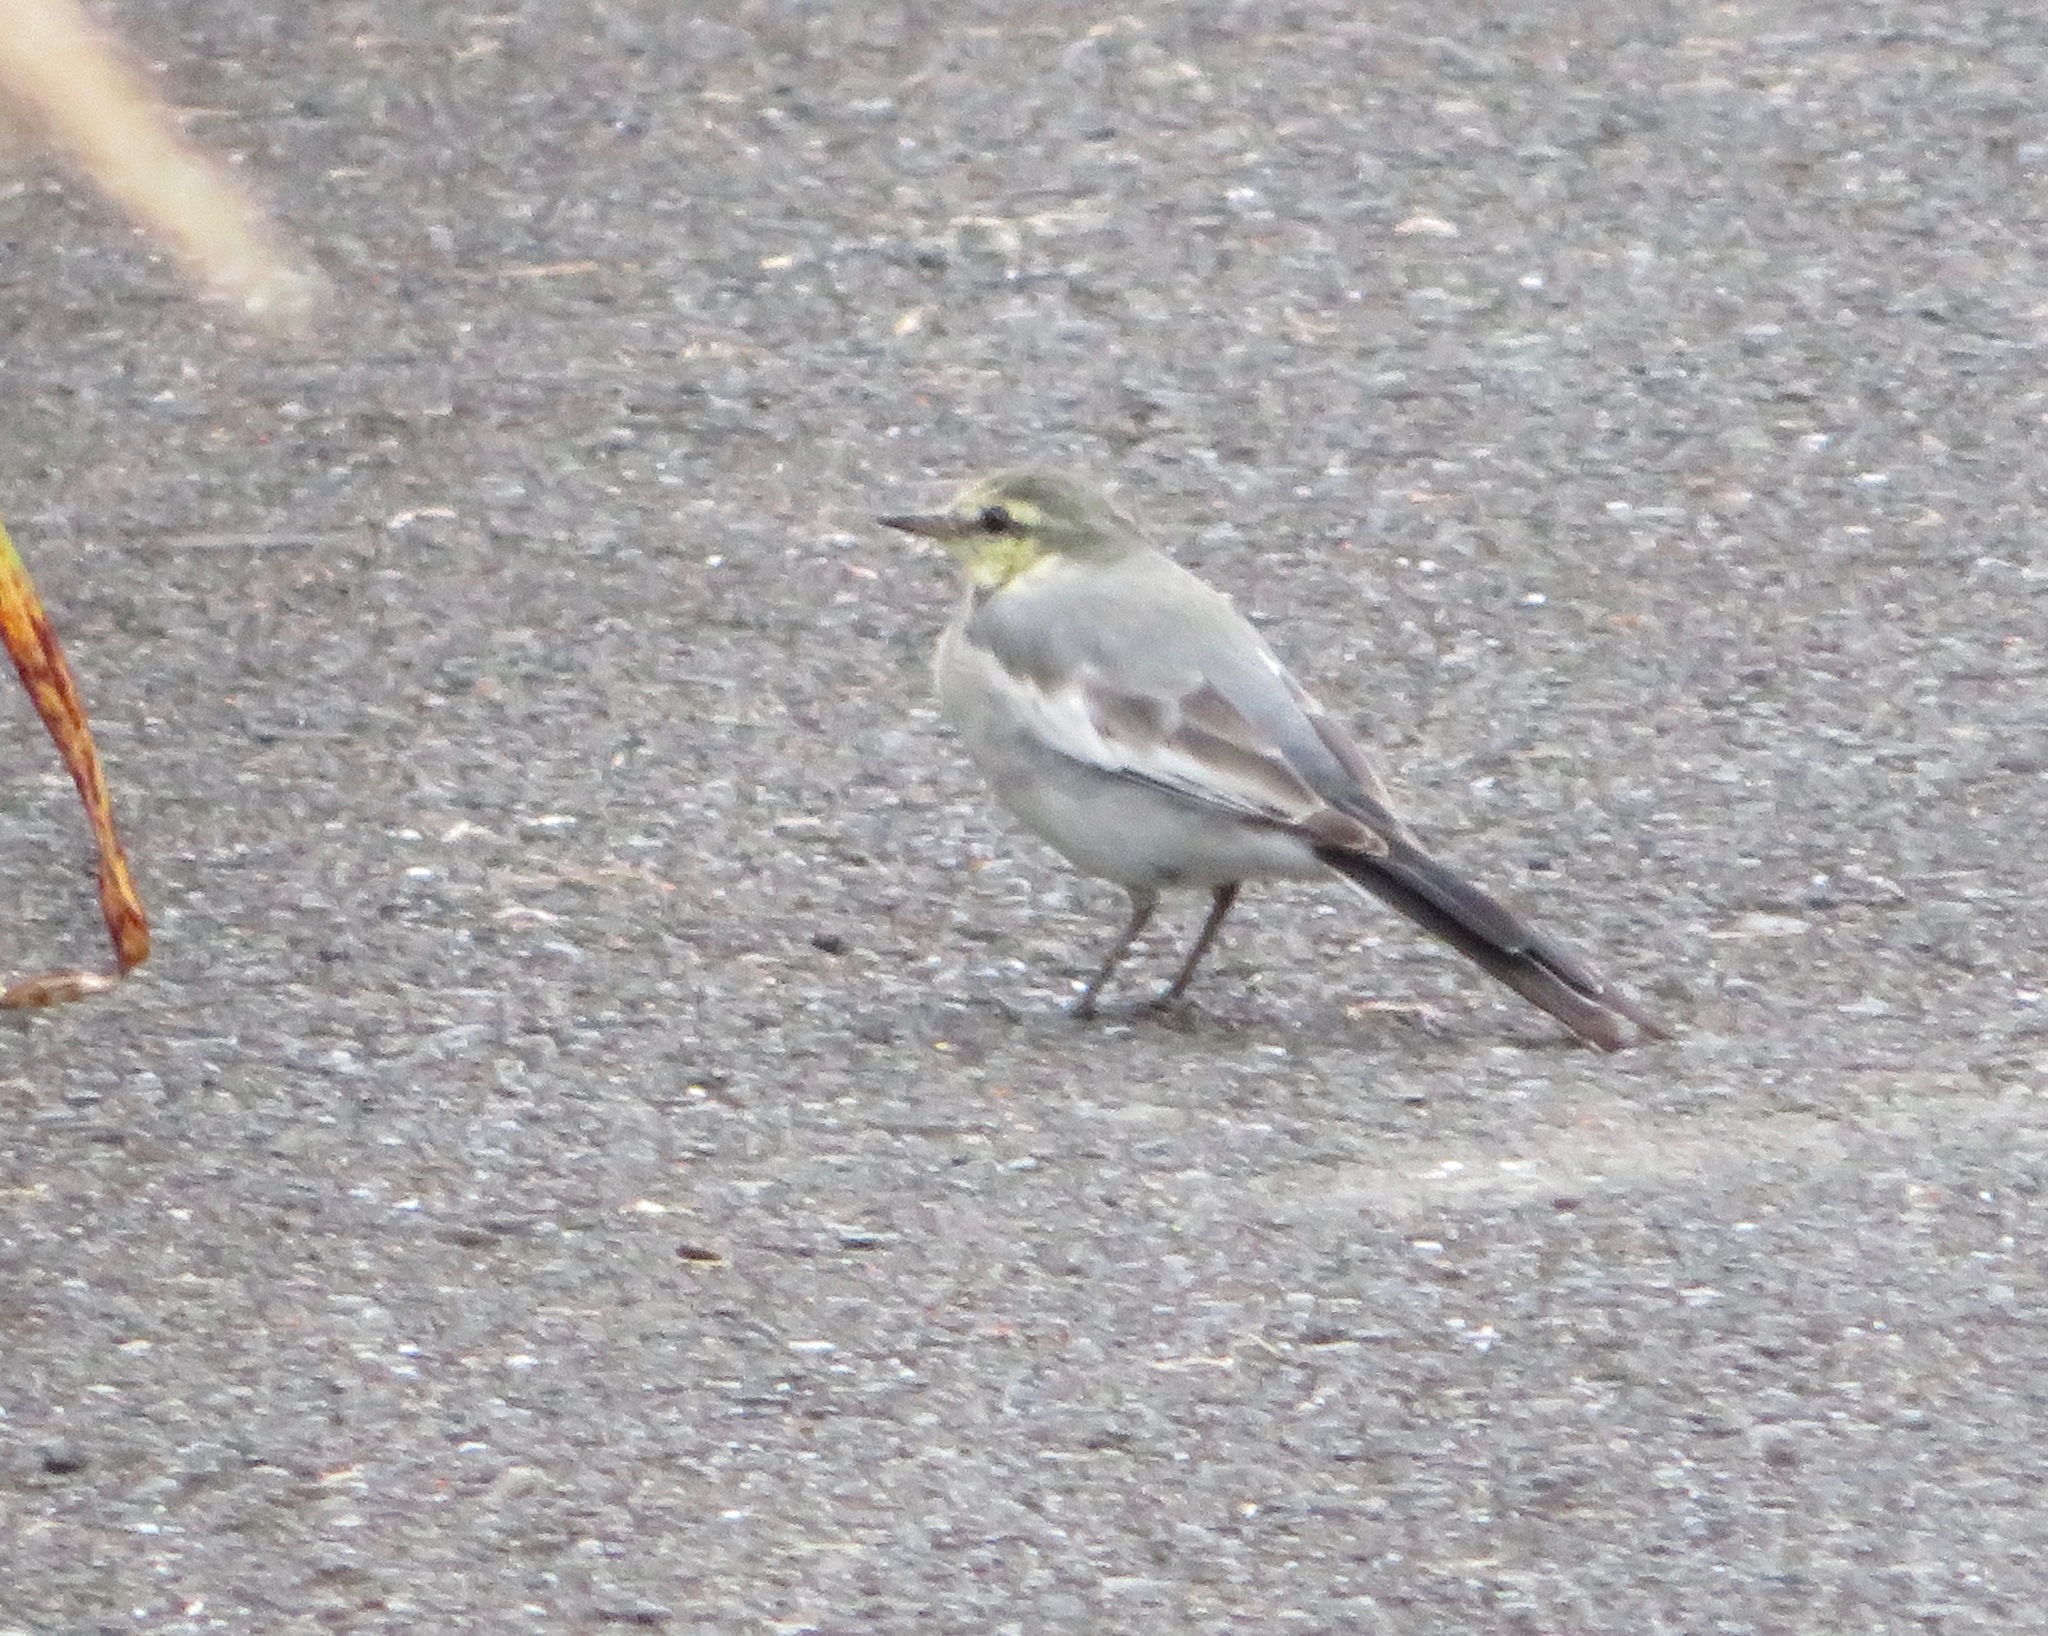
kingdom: Animalia
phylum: Chordata
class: Aves
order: Passeriformes
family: Motacillidae
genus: Motacilla
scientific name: Motacilla alba
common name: White wagtail
